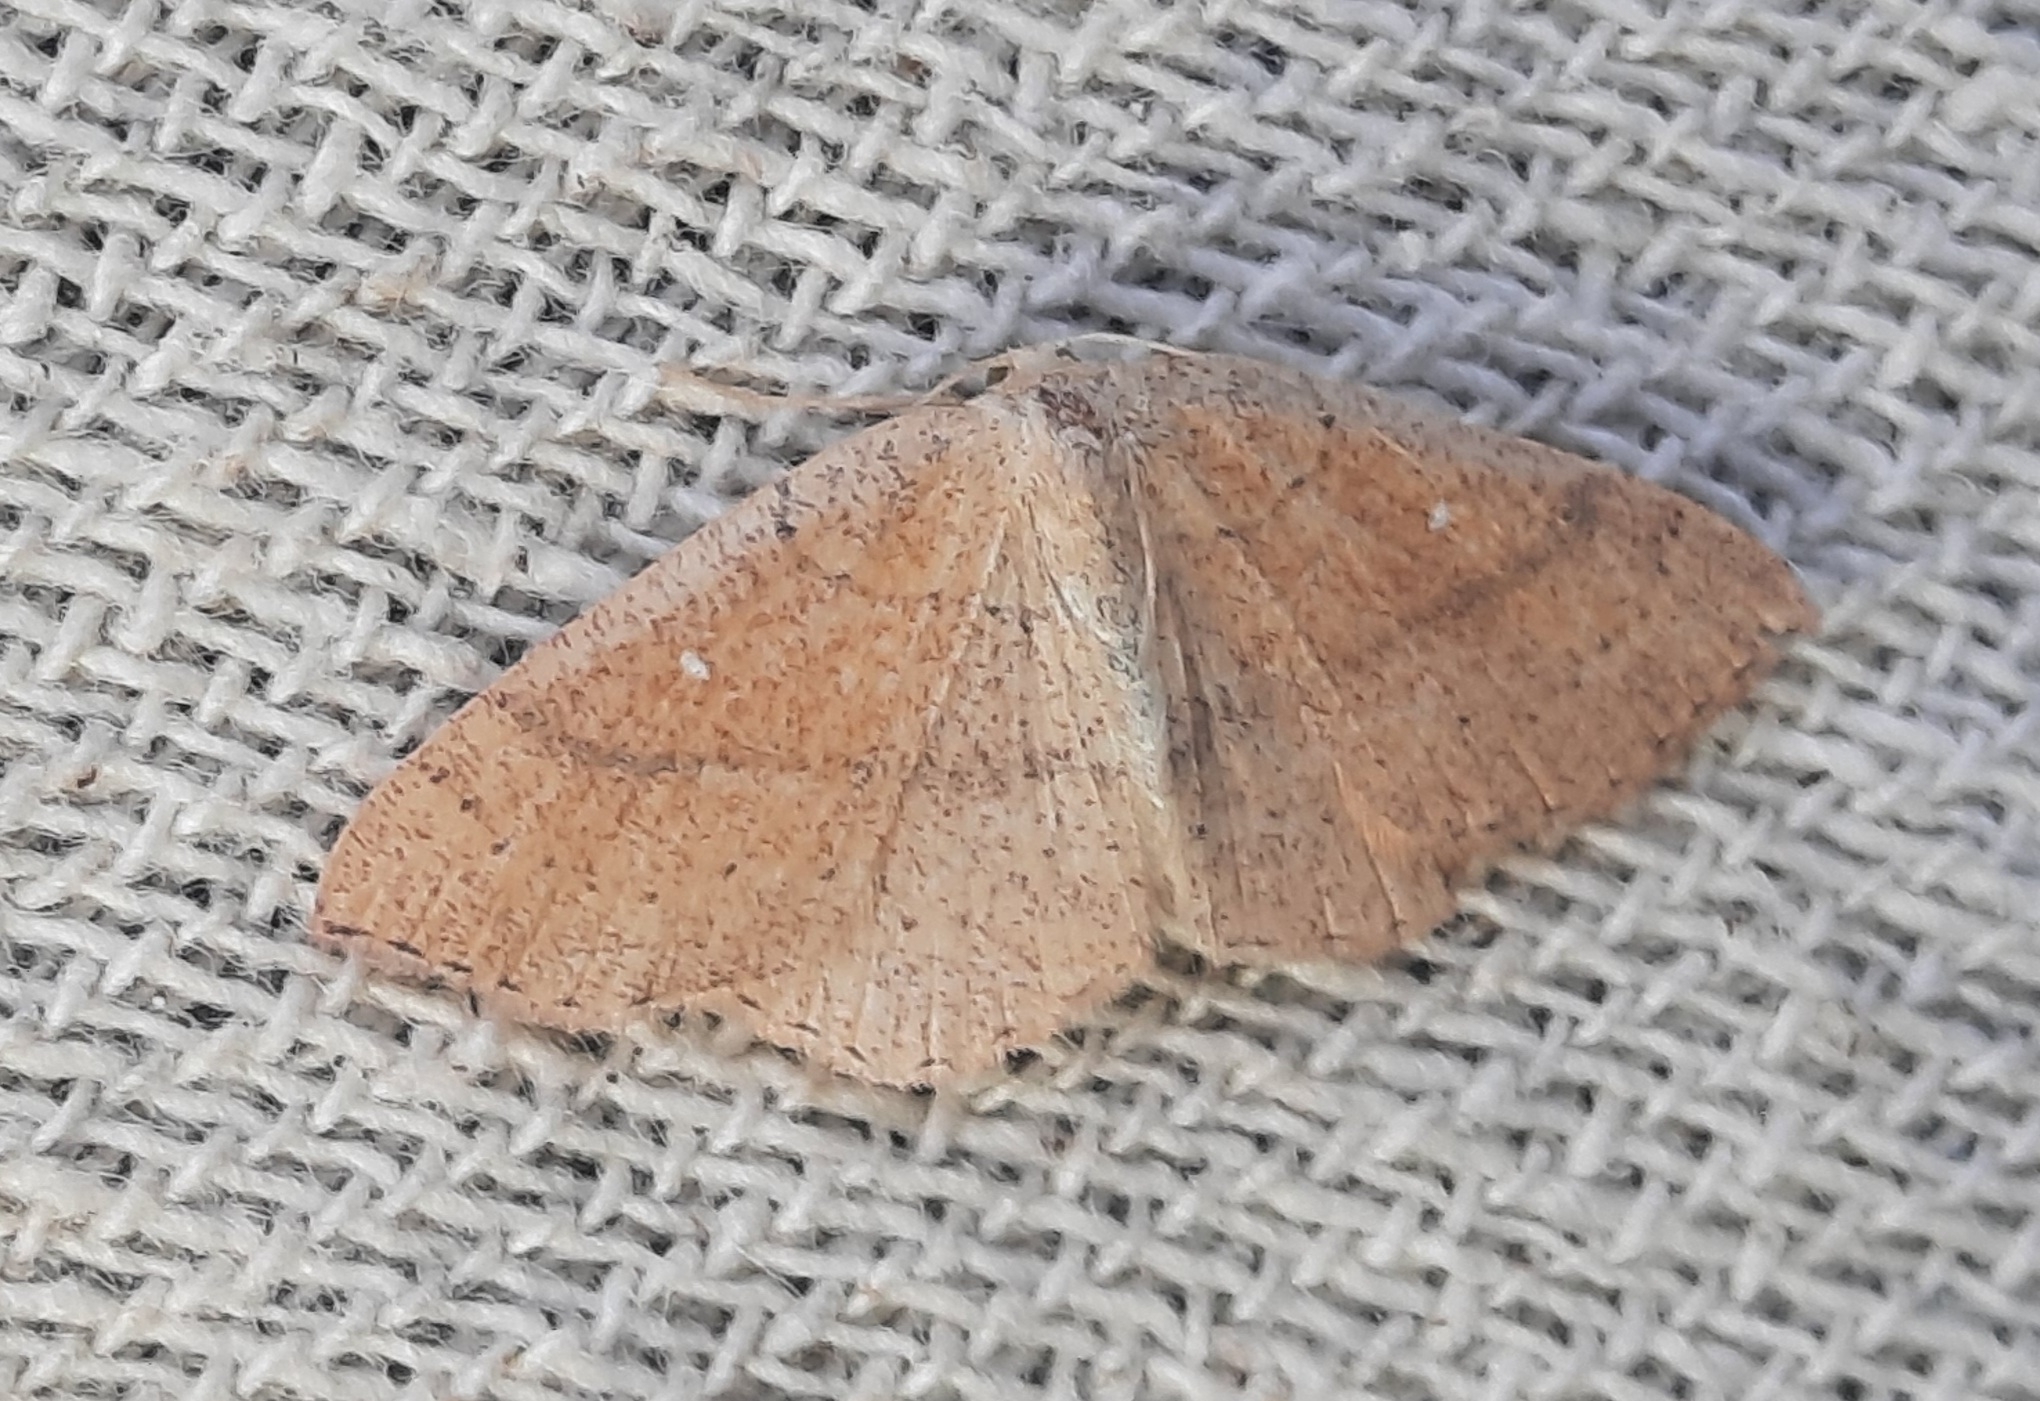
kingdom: Animalia
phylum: Arthropoda
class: Insecta
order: Lepidoptera
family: Geometridae
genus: Cyclophora
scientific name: Cyclophora ruficiliaria
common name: Jersey mocha
